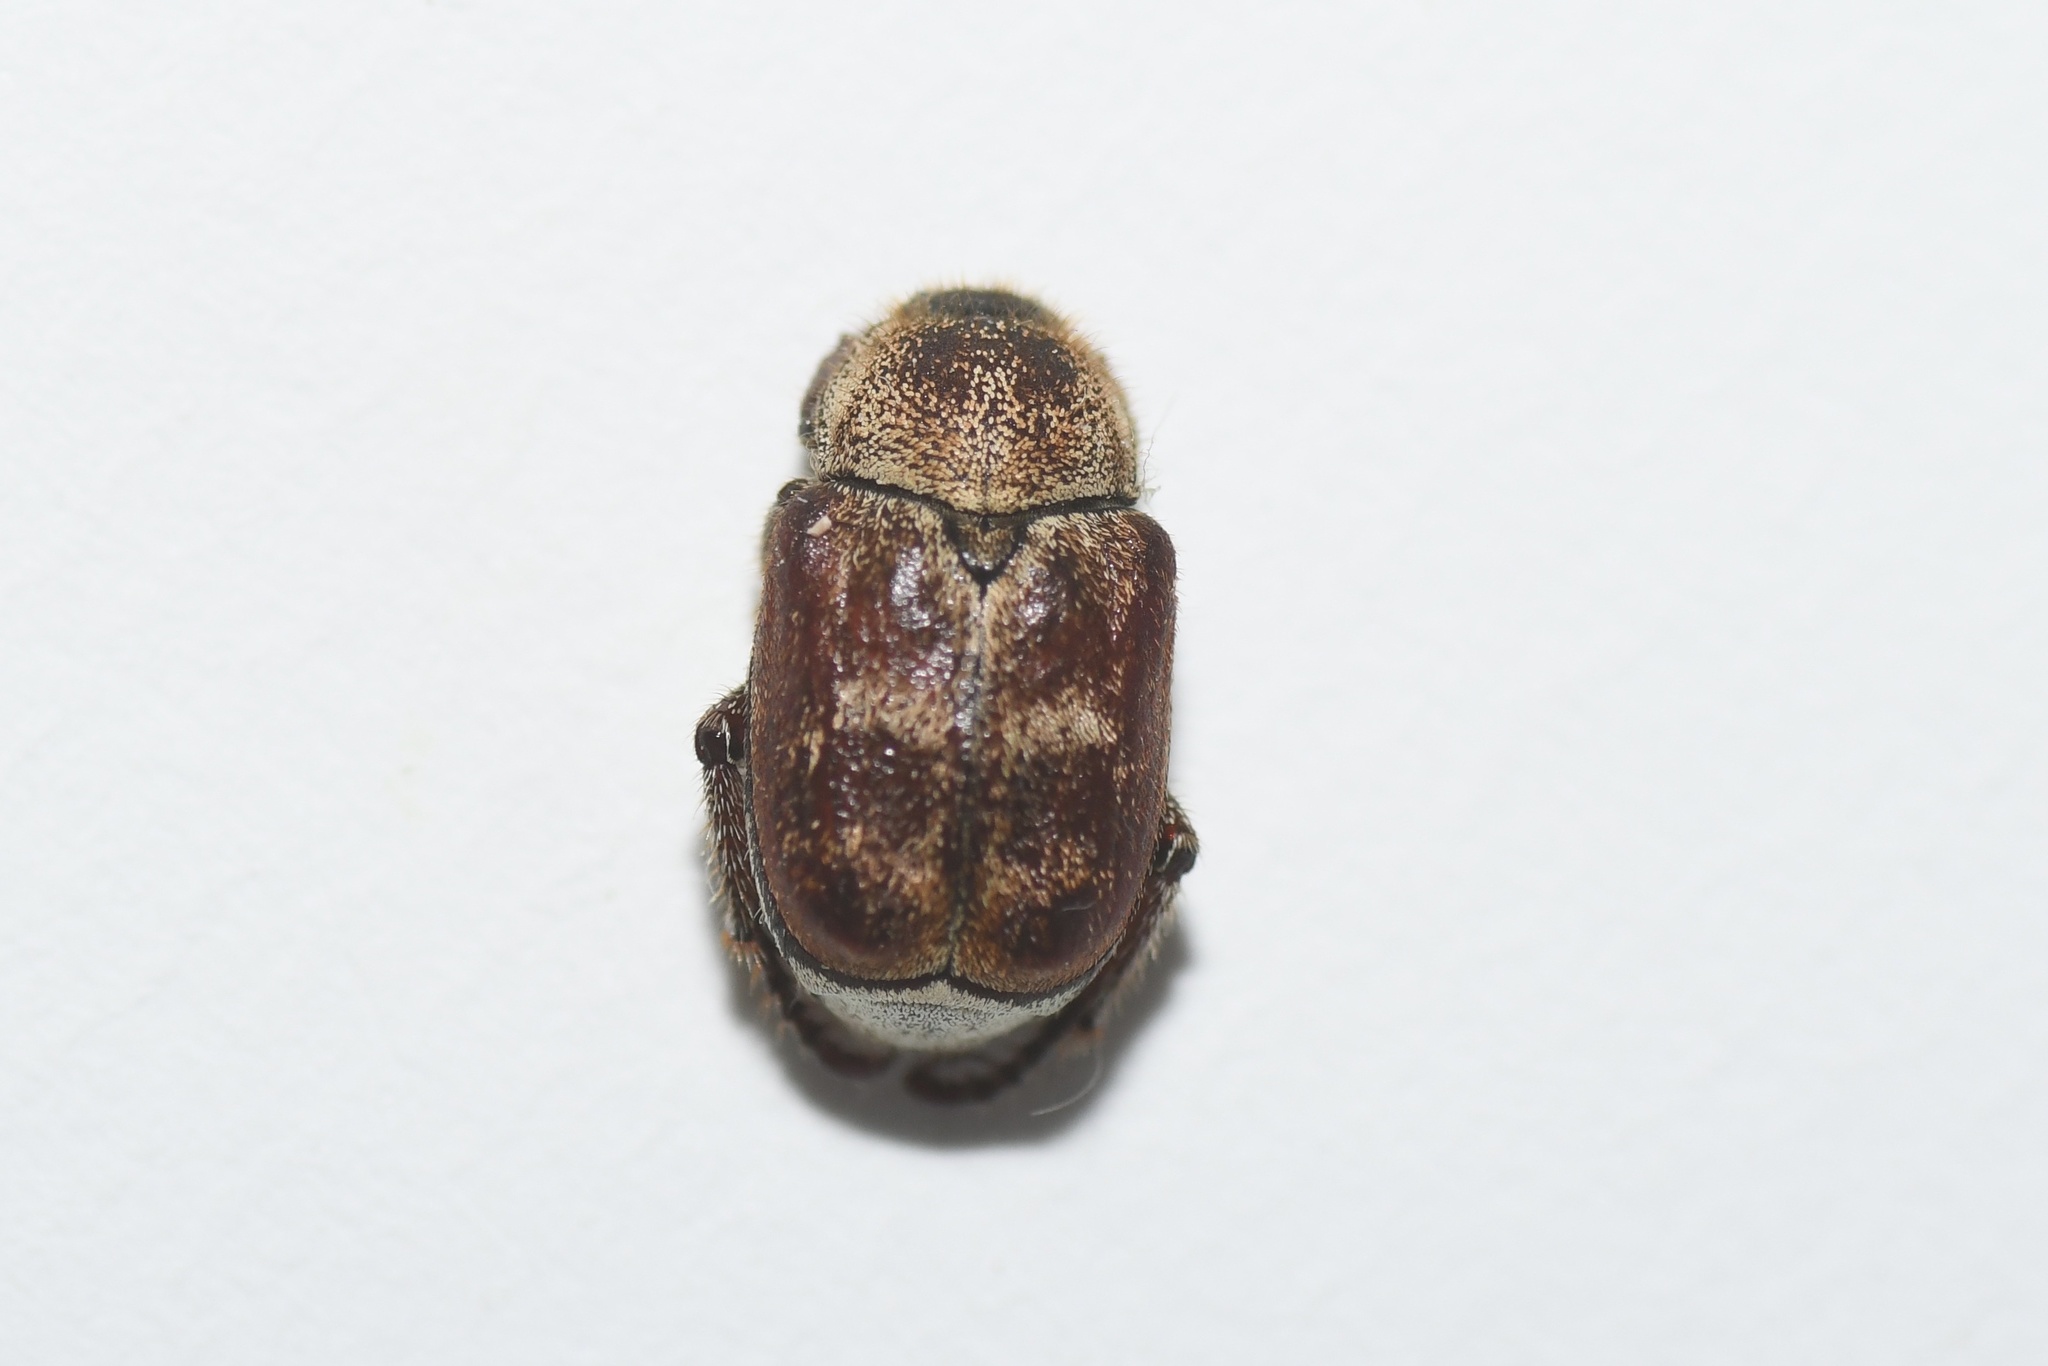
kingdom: Animalia
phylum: Arthropoda
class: Insecta
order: Coleoptera
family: Scarabaeidae
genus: Hoplia
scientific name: Hoplia trifasciata
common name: Three-lined hoplia
